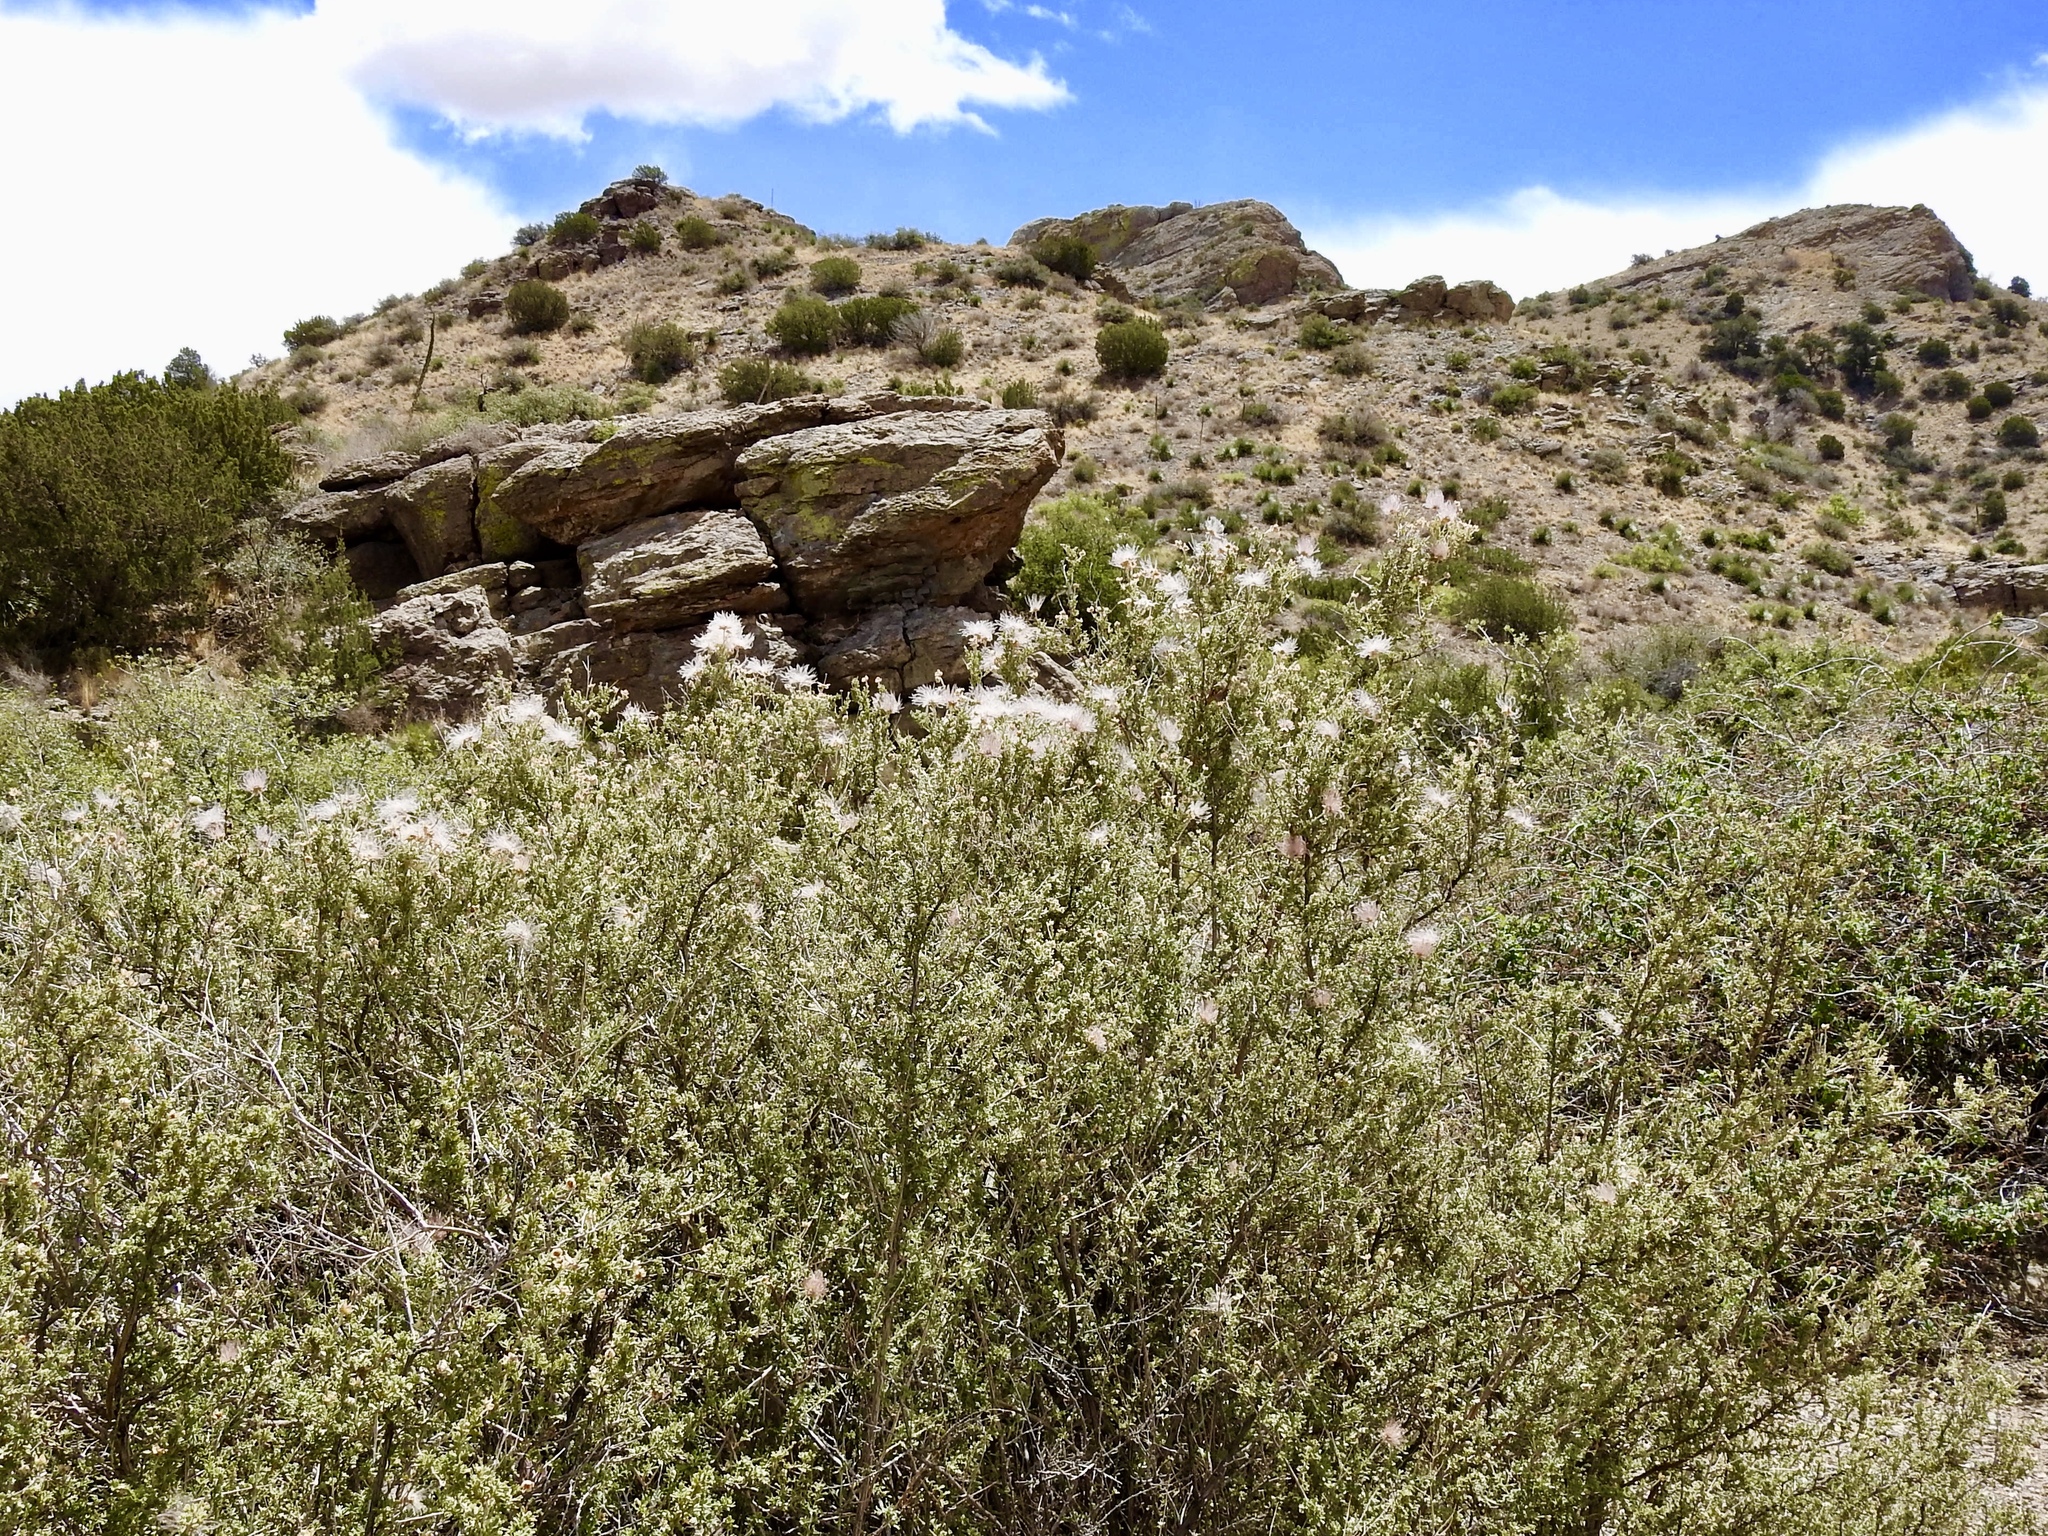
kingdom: Plantae
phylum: Tracheophyta
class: Magnoliopsida
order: Rosales
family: Rosaceae
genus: Fallugia
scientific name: Fallugia paradoxa
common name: Apache-plume
